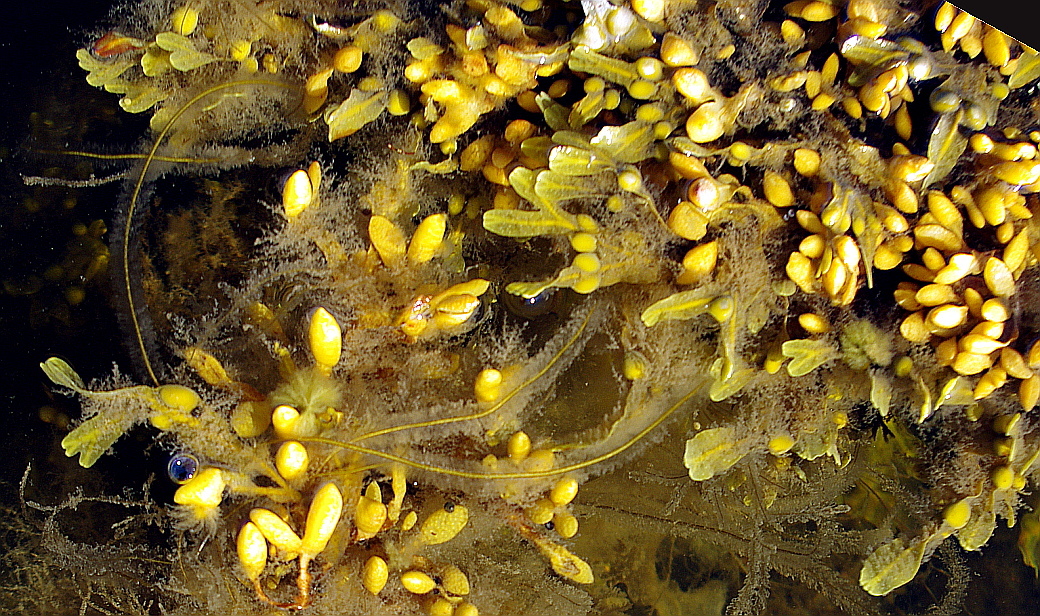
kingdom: Chromista
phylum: Ochrophyta
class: Phaeophyceae
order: Fucales
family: Fucaceae
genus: Fucus
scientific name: Fucus vesiculosus
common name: Bladder wrack
